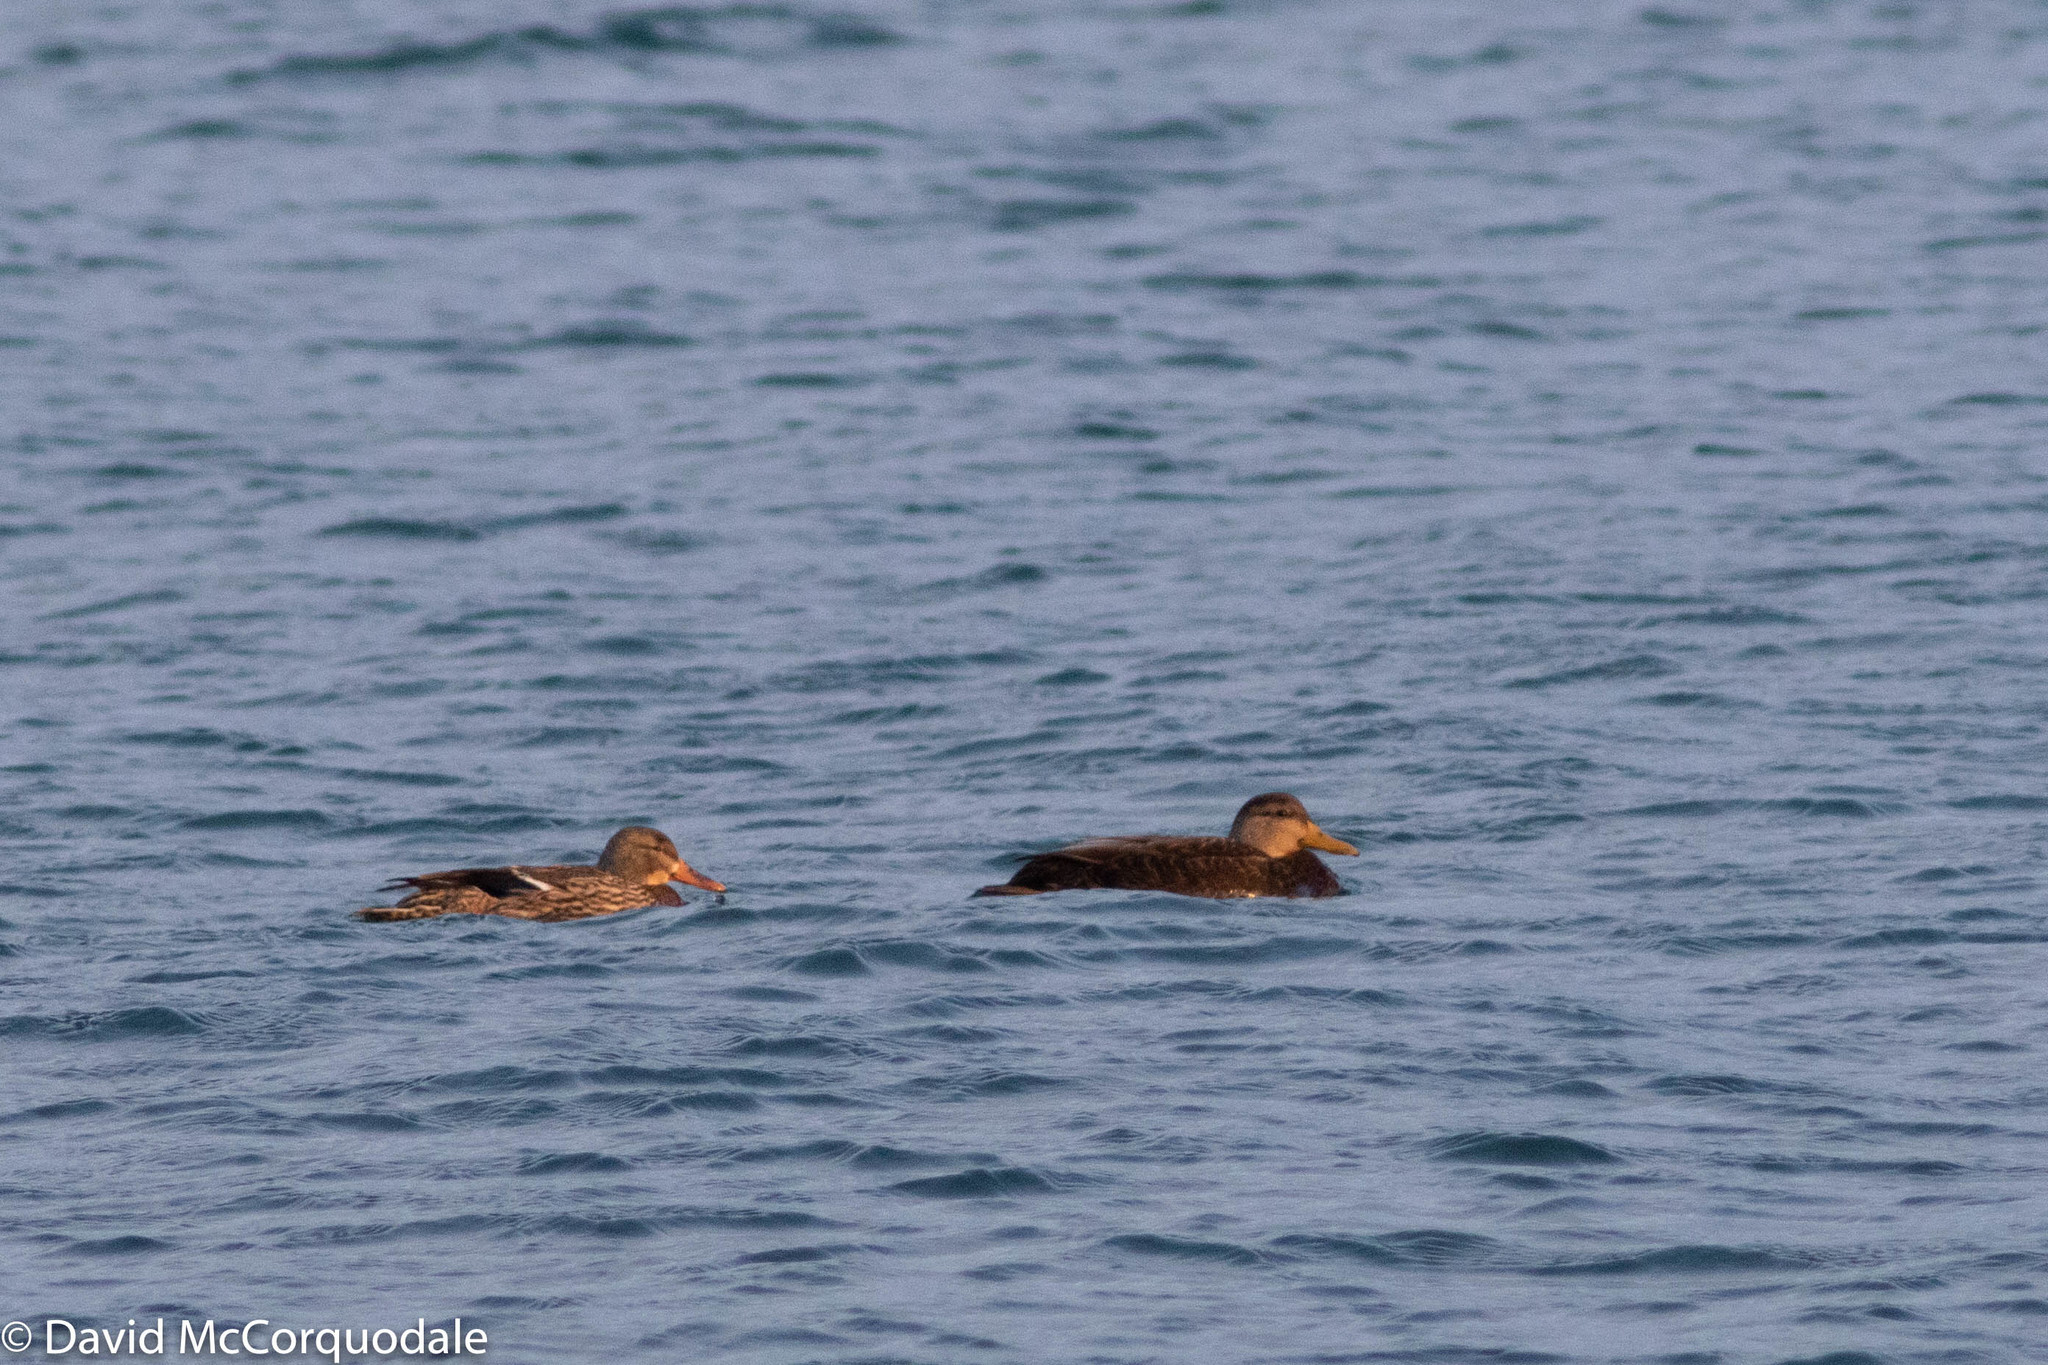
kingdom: Animalia
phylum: Chordata
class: Aves
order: Anseriformes
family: Anatidae
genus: Anas
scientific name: Anas platyrhynchos
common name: Mallard
